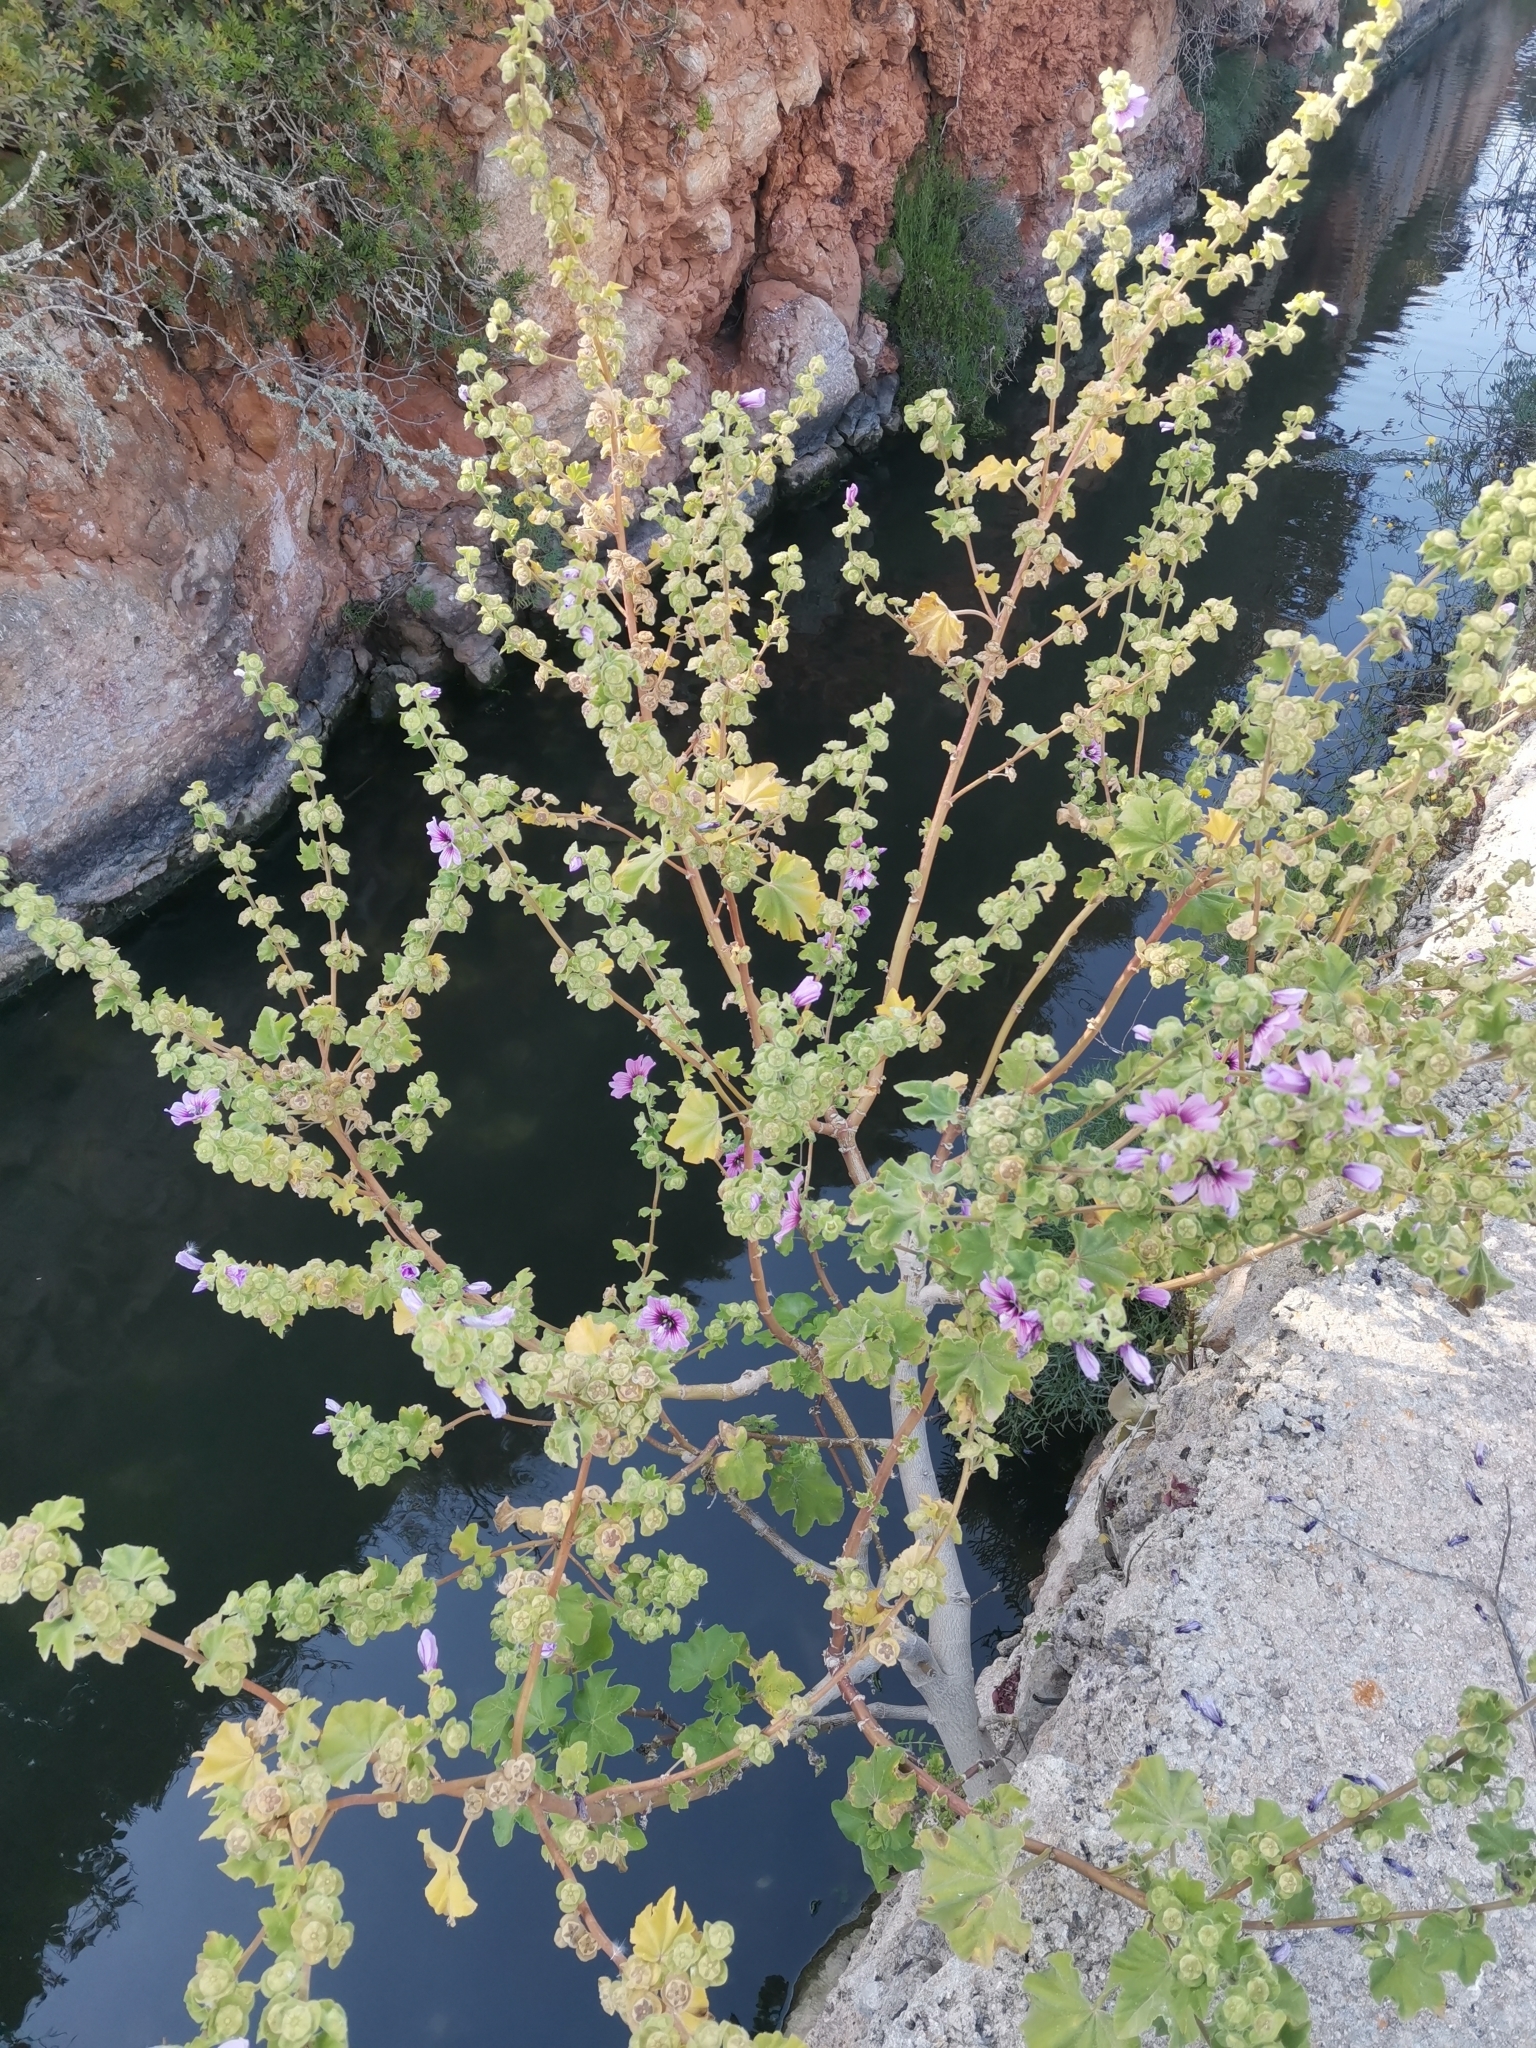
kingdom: Plantae
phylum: Tracheophyta
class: Magnoliopsida
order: Malvales
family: Malvaceae
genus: Malva
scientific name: Malva arborea
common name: Tree mallow
